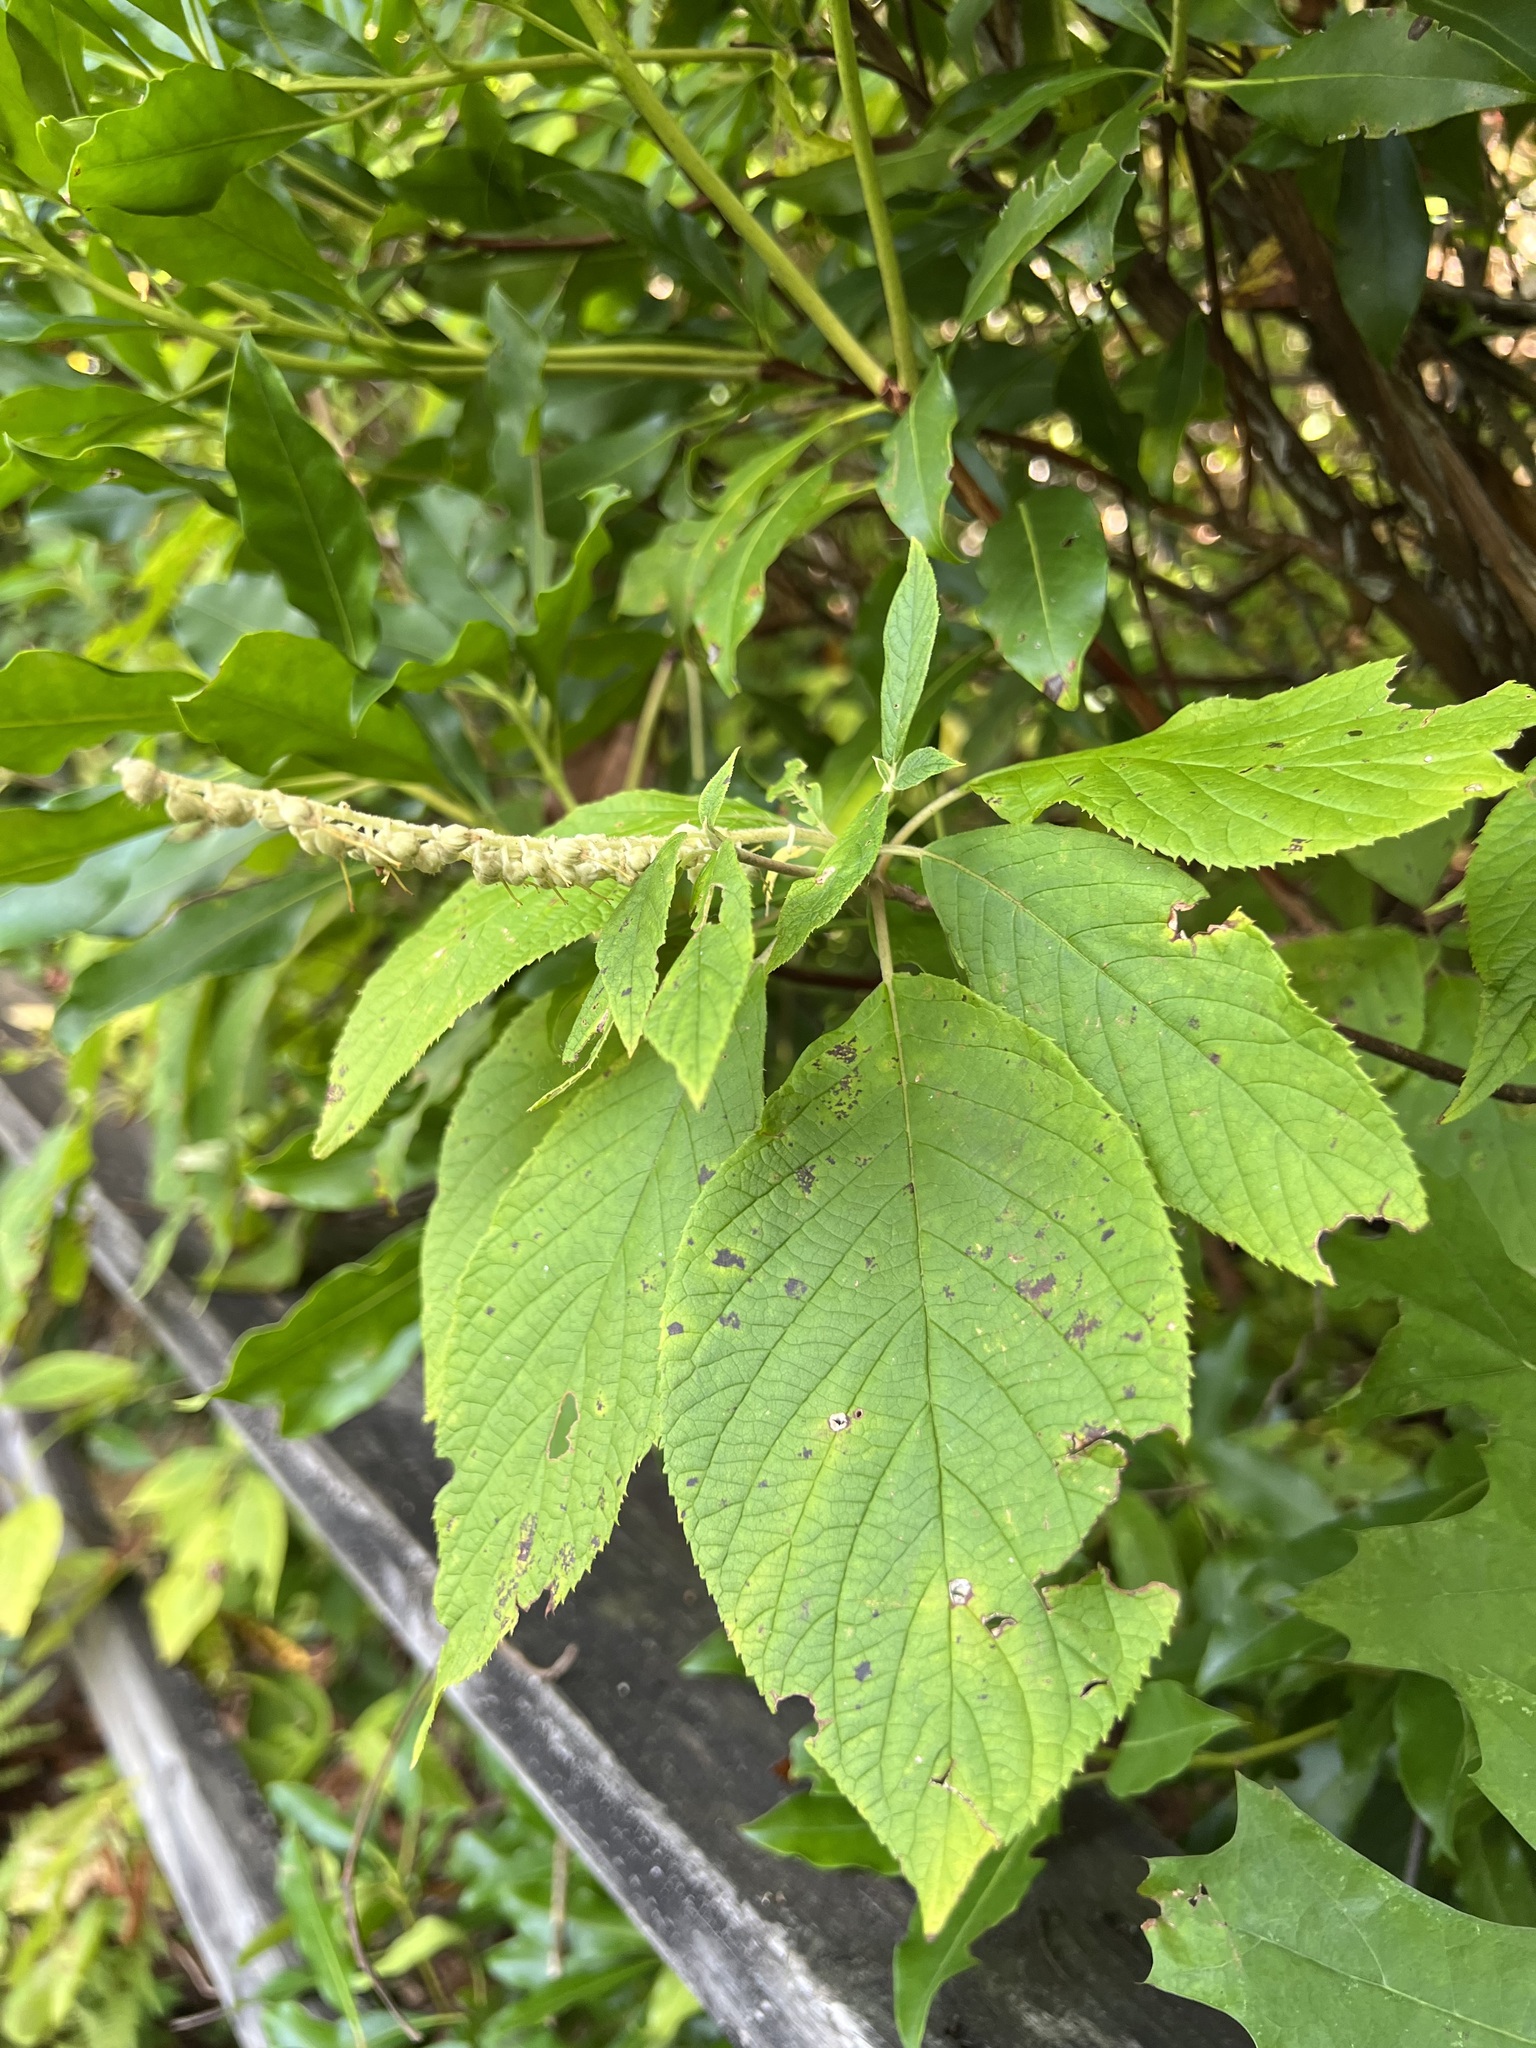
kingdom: Plantae
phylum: Tracheophyta
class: Magnoliopsida
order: Ericales
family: Clethraceae
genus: Clethra
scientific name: Clethra acuminata
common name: Mountain sweet pepperbush
